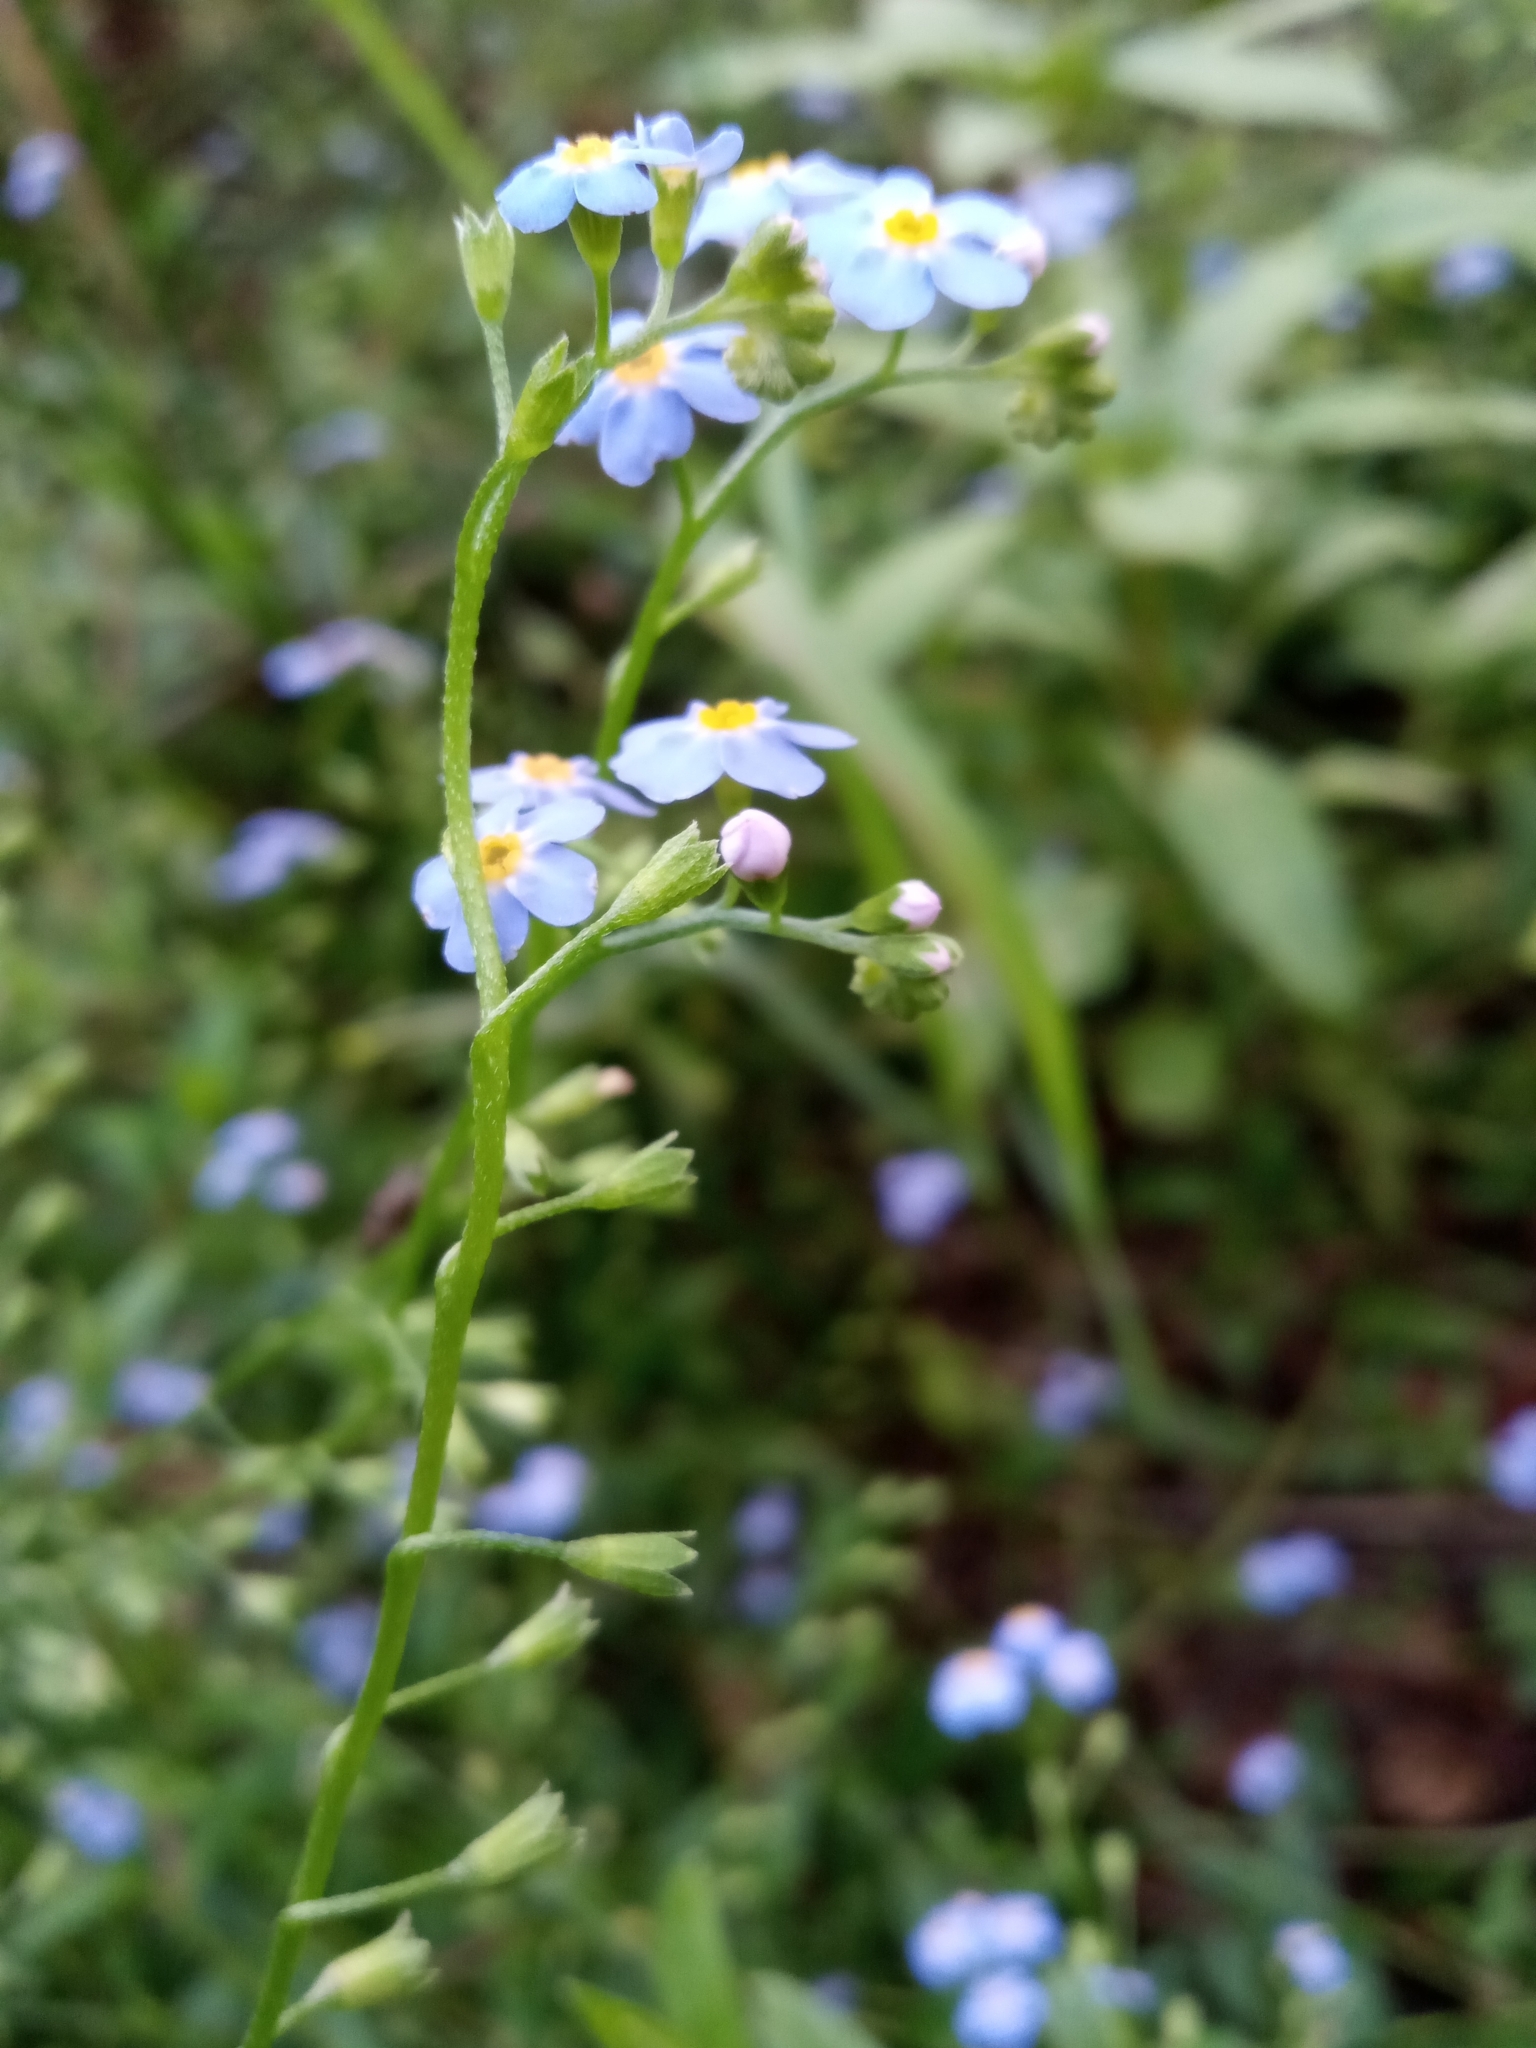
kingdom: Plantae
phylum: Tracheophyta
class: Magnoliopsida
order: Boraginales
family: Boraginaceae
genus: Myosotis
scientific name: Myosotis scorpioides
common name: Water forget-me-not
